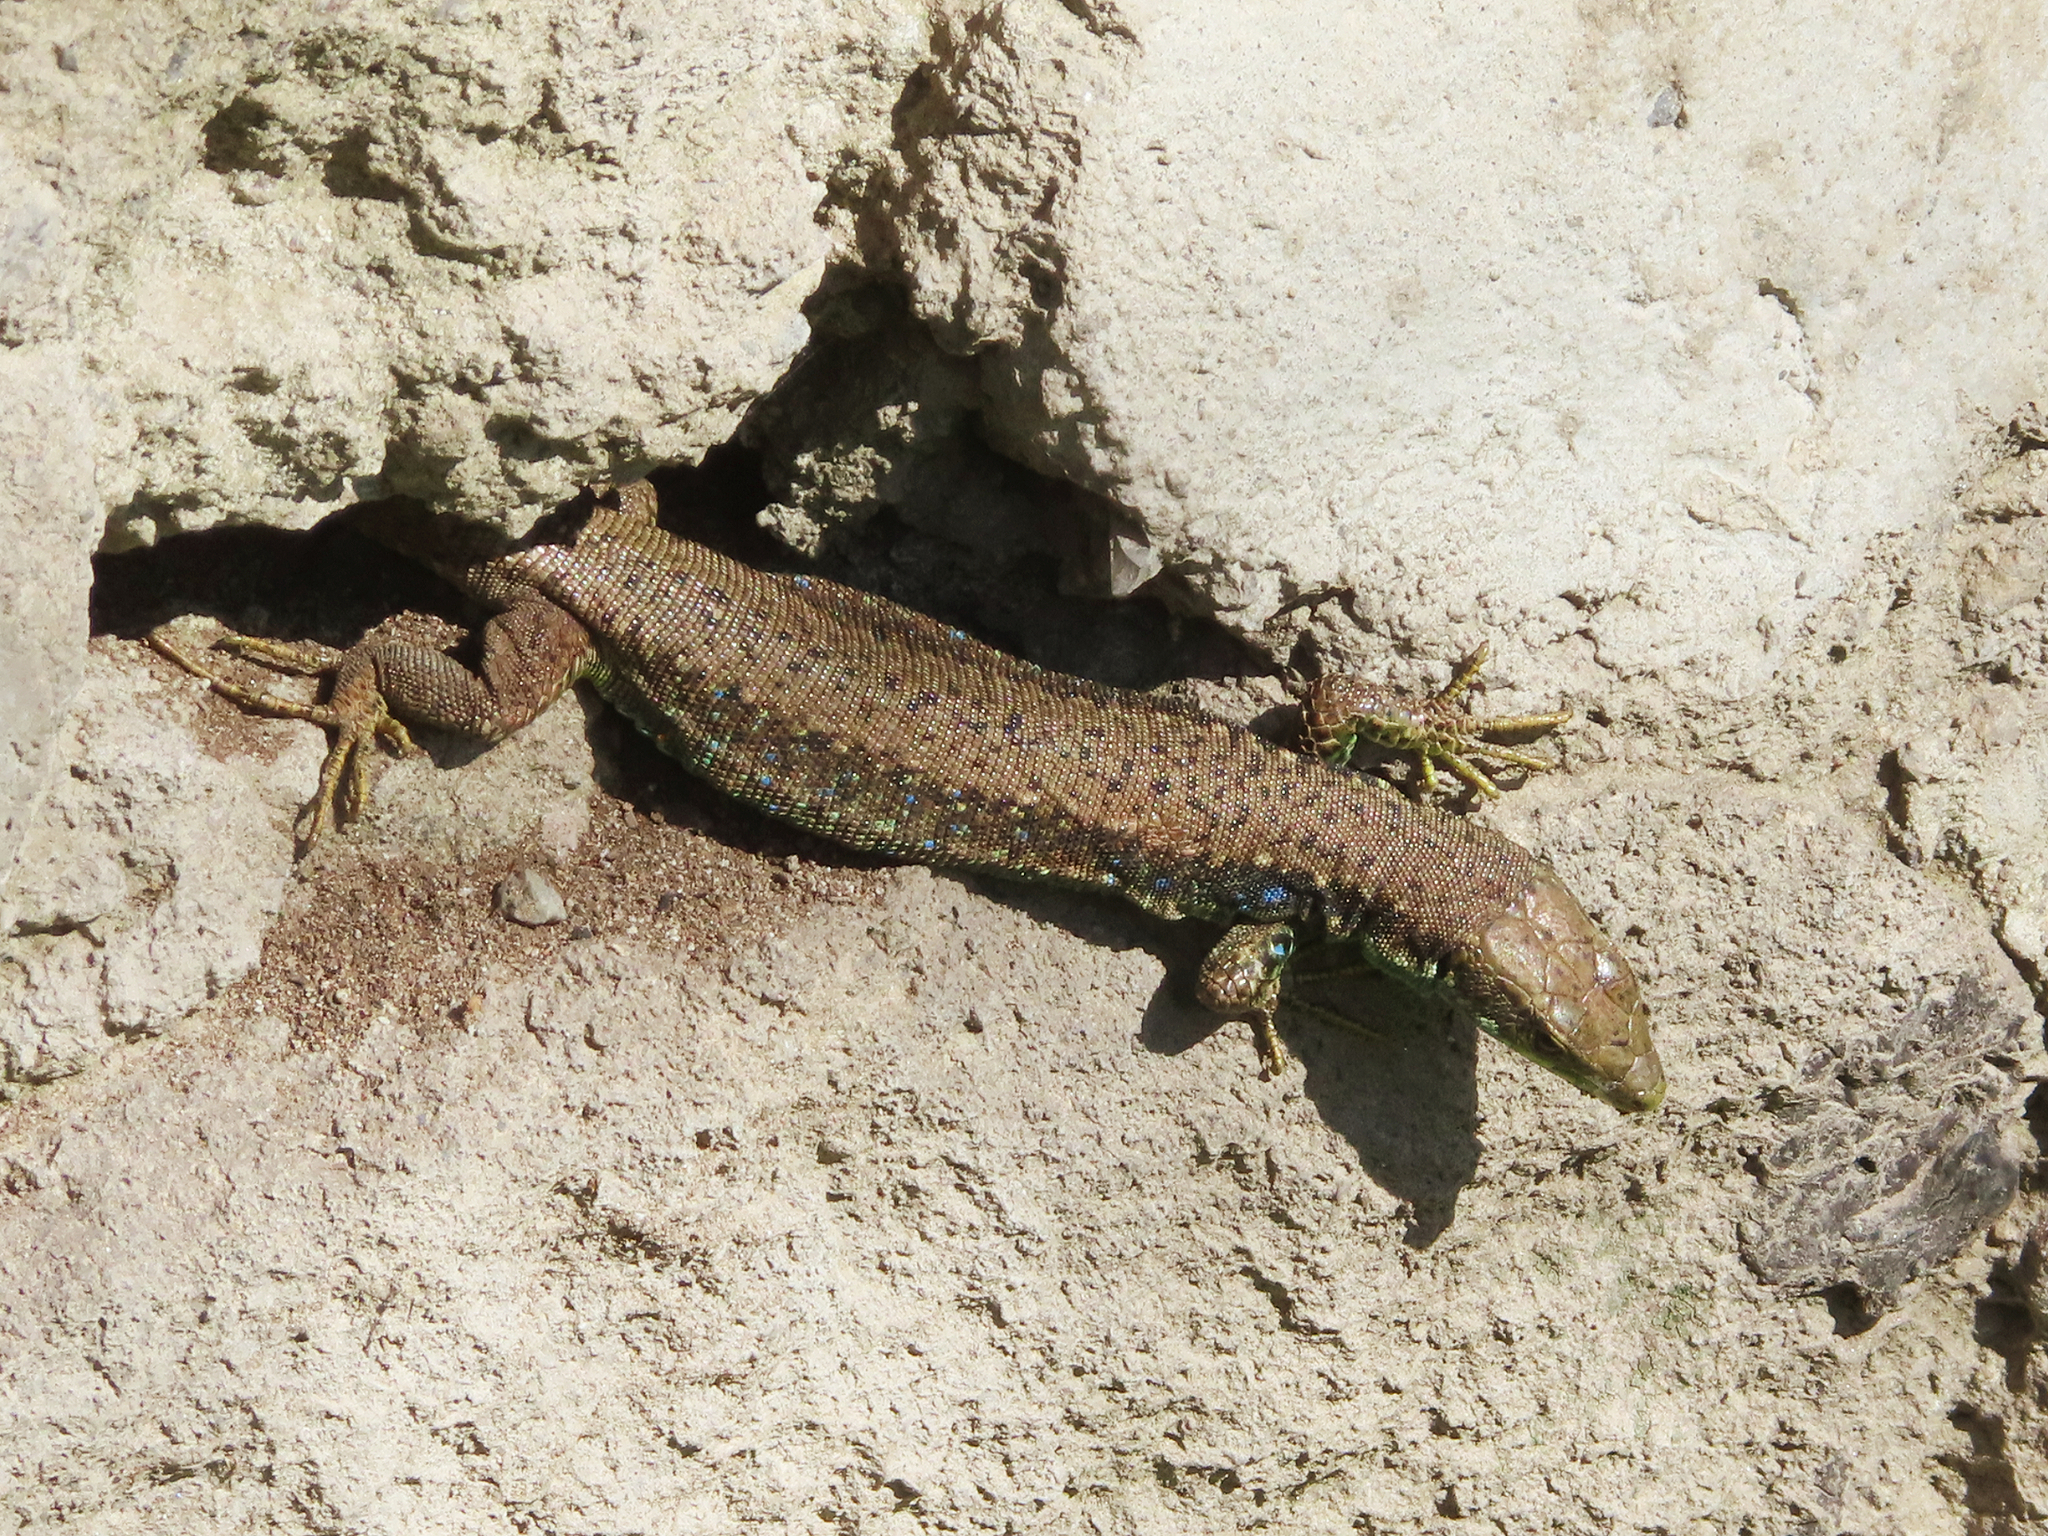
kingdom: Animalia
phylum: Chordata
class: Squamata
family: Lacertidae
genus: Darevskia
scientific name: Darevskia raddei
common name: Radde's lizard
